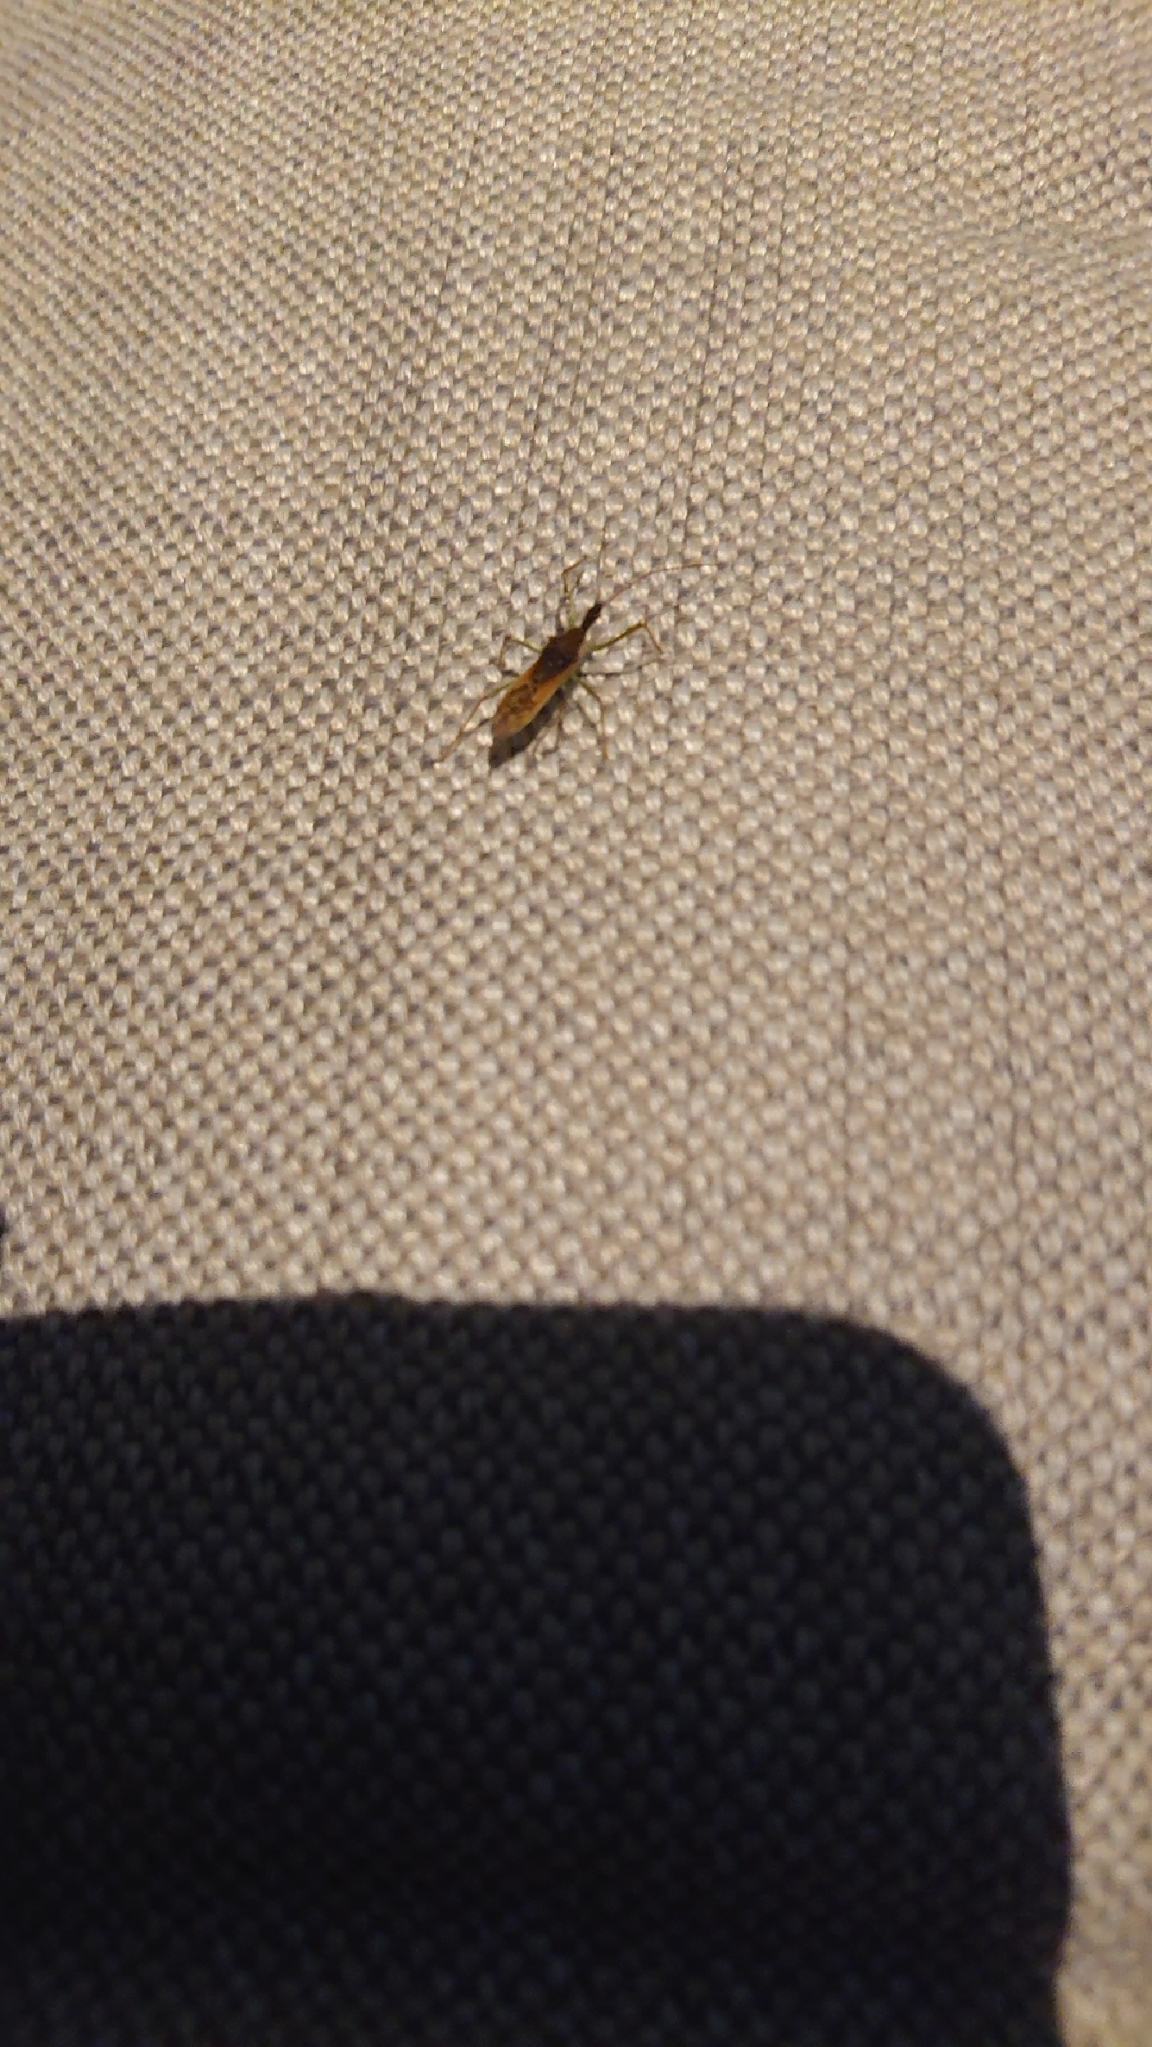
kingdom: Animalia
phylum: Arthropoda
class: Insecta
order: Hemiptera
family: Reduviidae
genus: Zelus
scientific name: Zelus renardii
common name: Assassin bug
